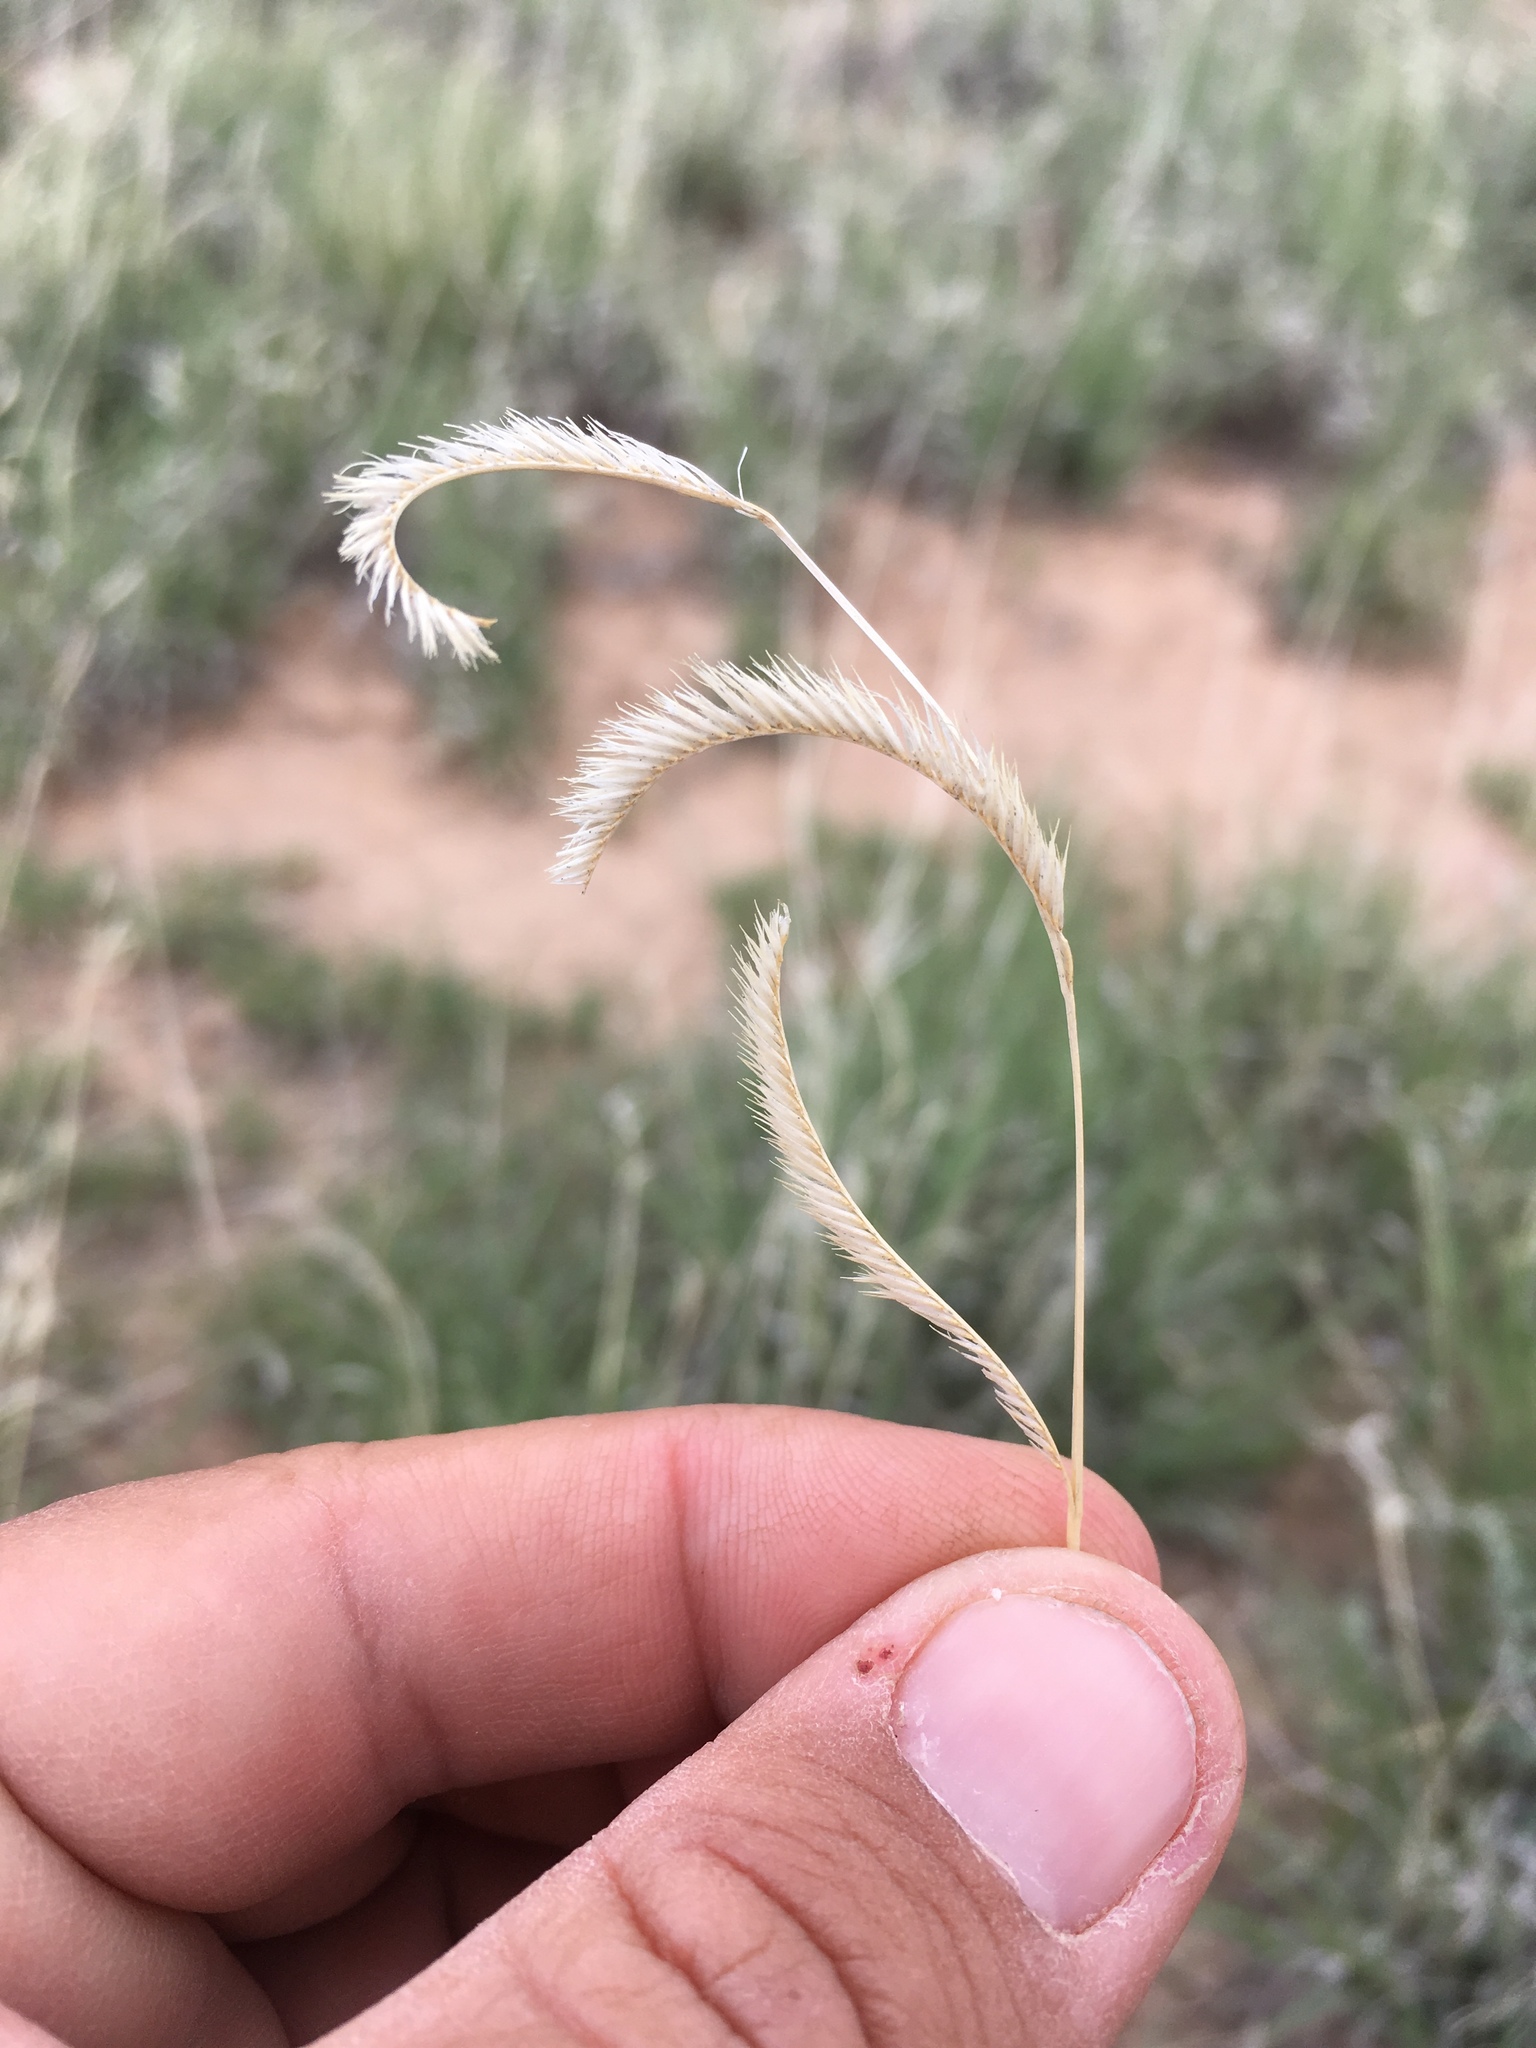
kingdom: Plantae
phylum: Tracheophyta
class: Liliopsida
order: Poales
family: Poaceae
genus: Bouteloua
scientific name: Bouteloua gracilis
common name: Blue grama
